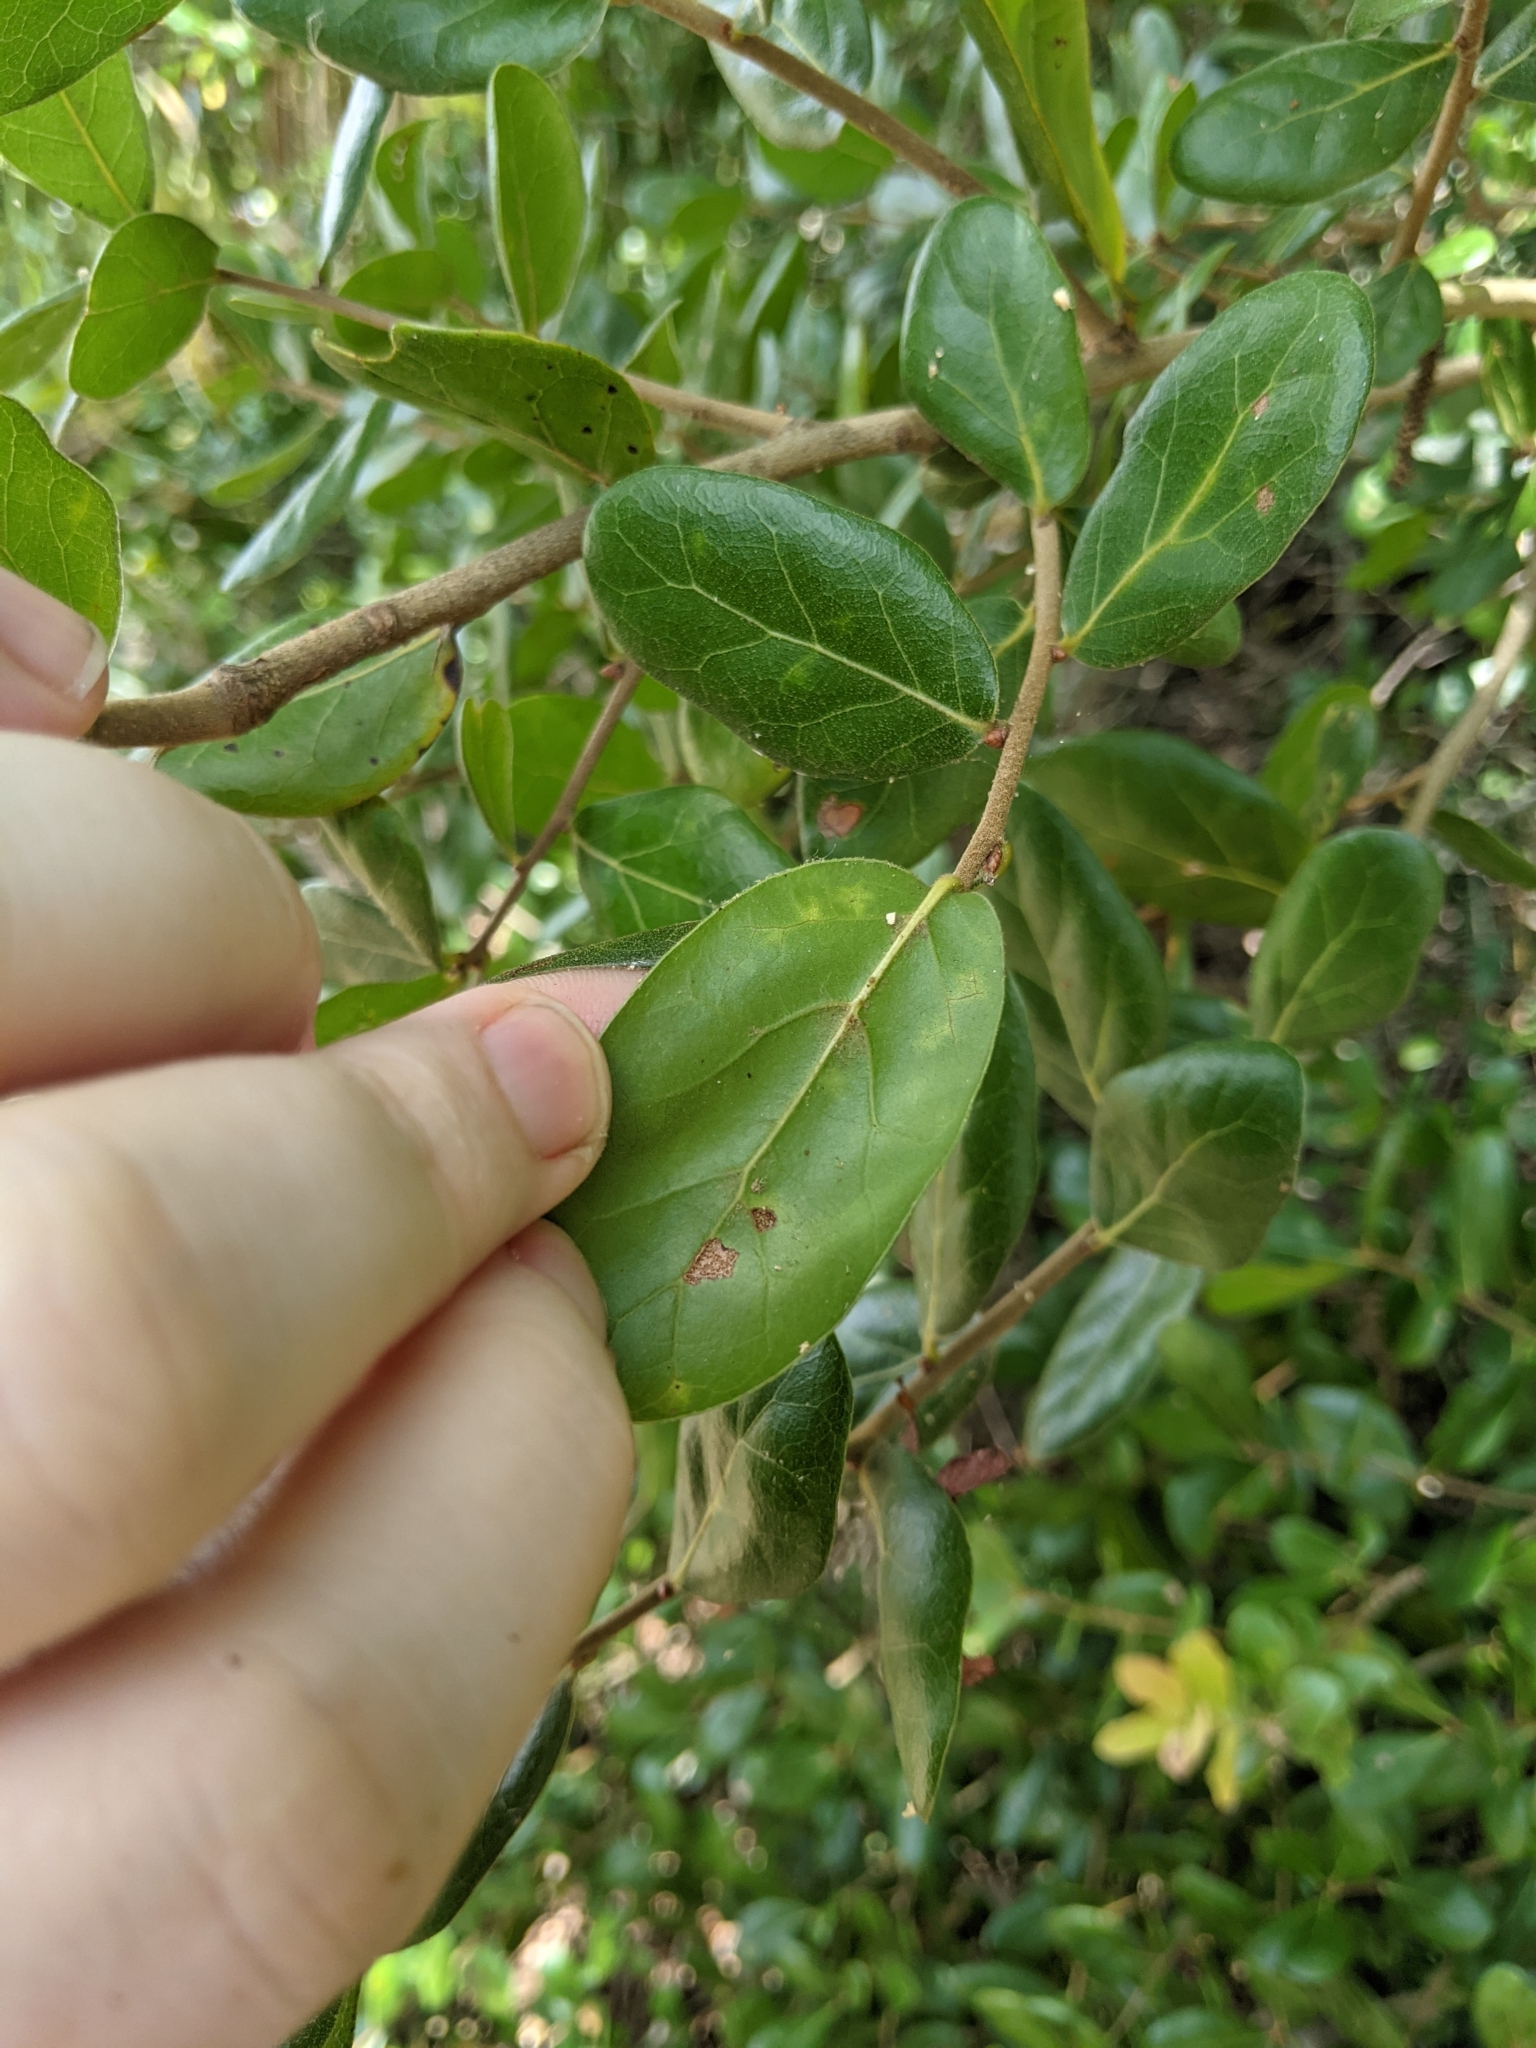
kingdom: Plantae
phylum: Tracheophyta
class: Magnoliopsida
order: Fagales
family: Fagaceae
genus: Quercus
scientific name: Quercus myrtifolia
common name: Myrtle oak
